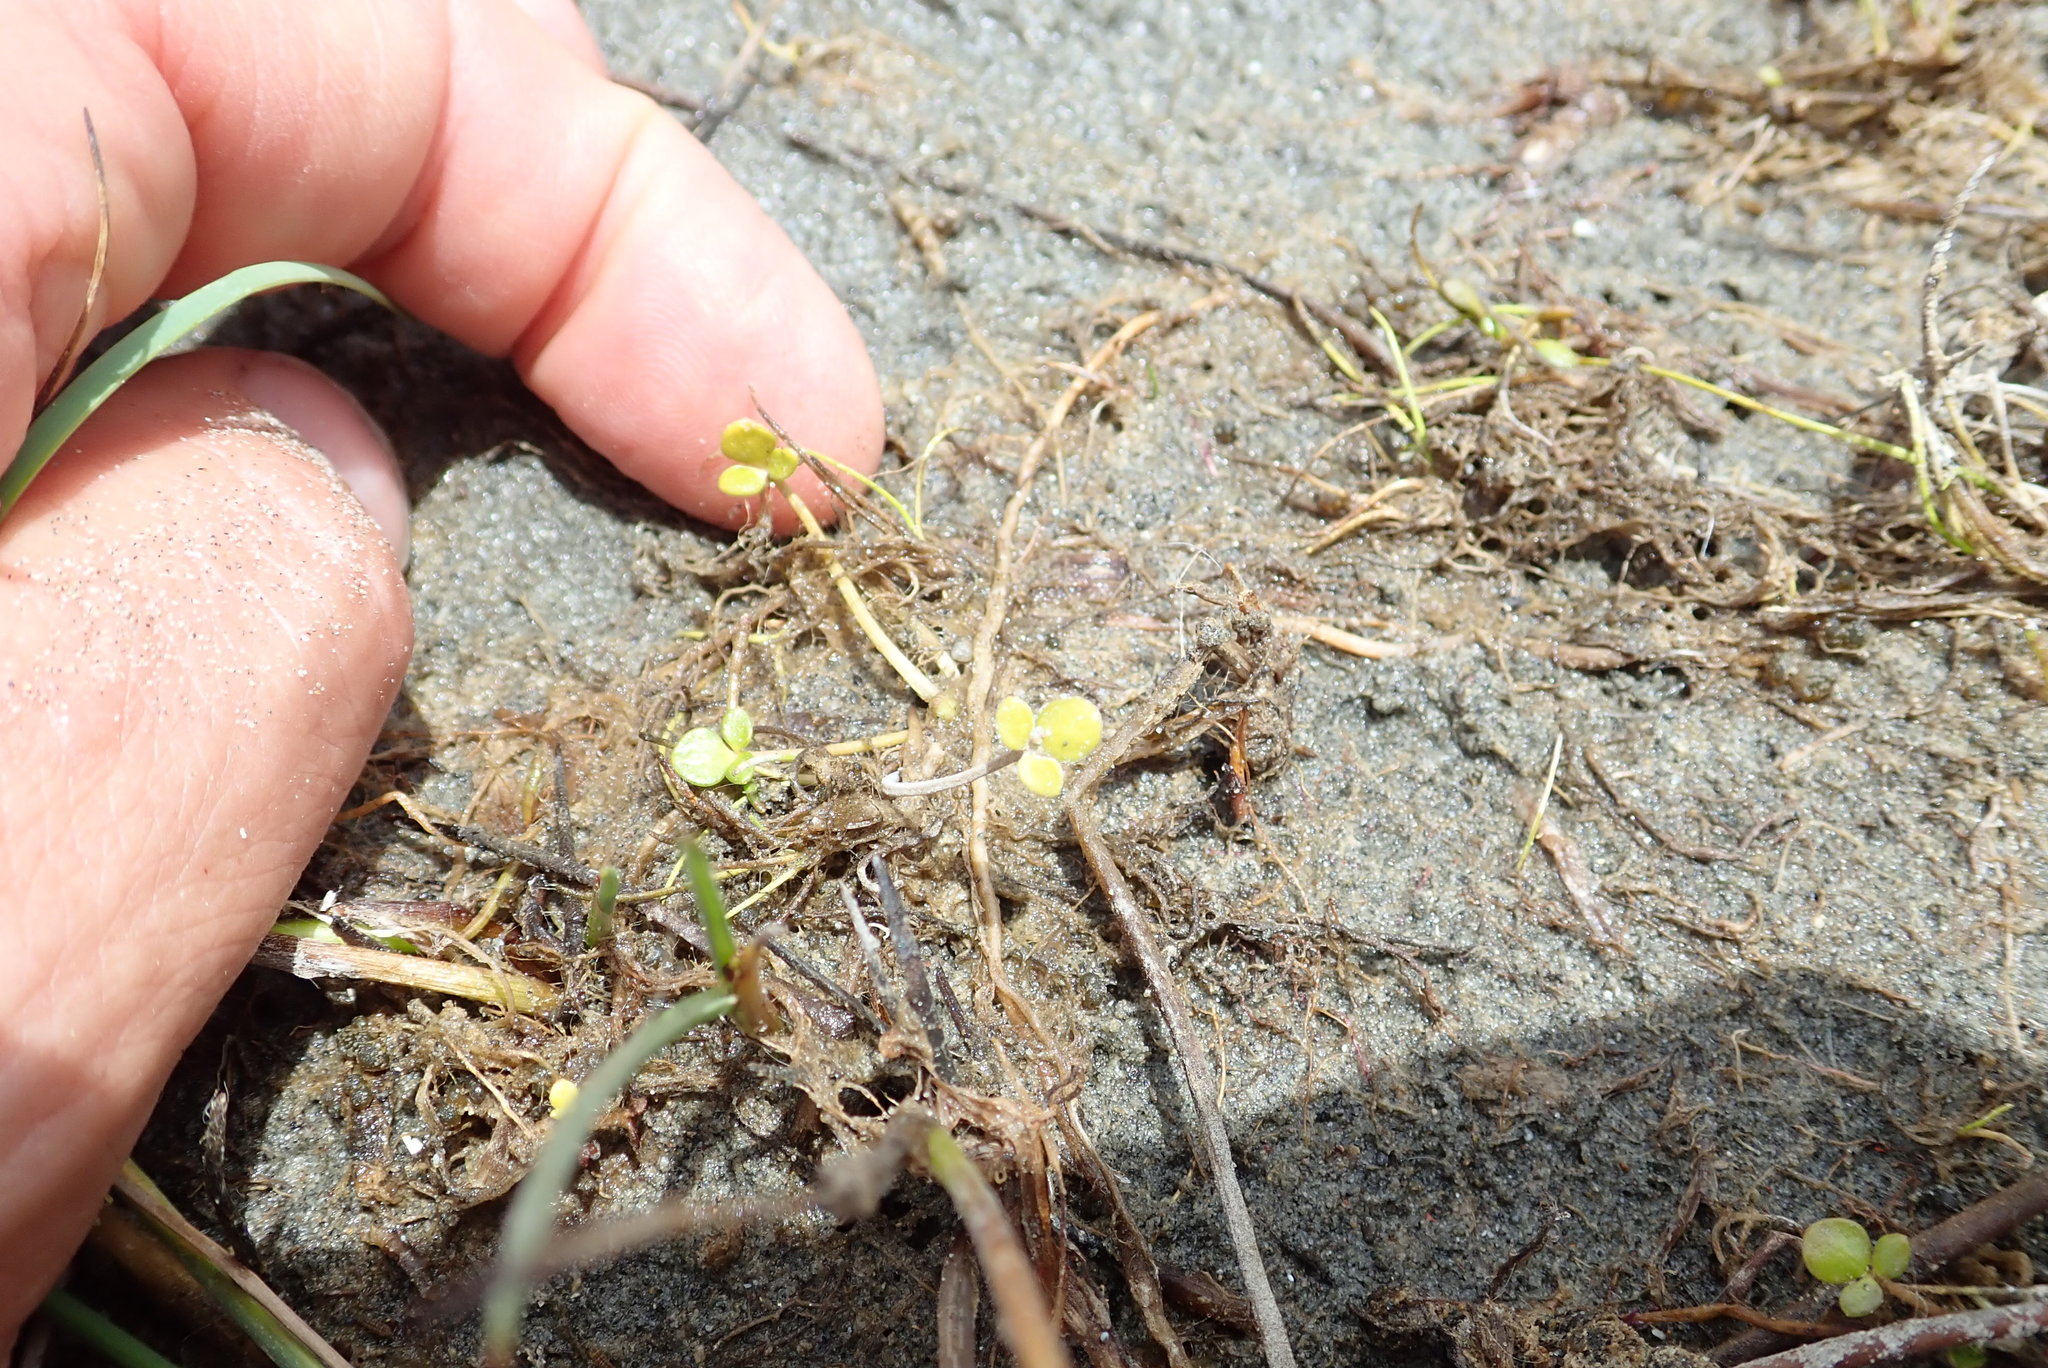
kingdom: Plantae
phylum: Tracheophyta
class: Magnoliopsida
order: Ranunculales
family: Ranunculaceae
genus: Ranunculus
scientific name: Ranunculus acaulis
